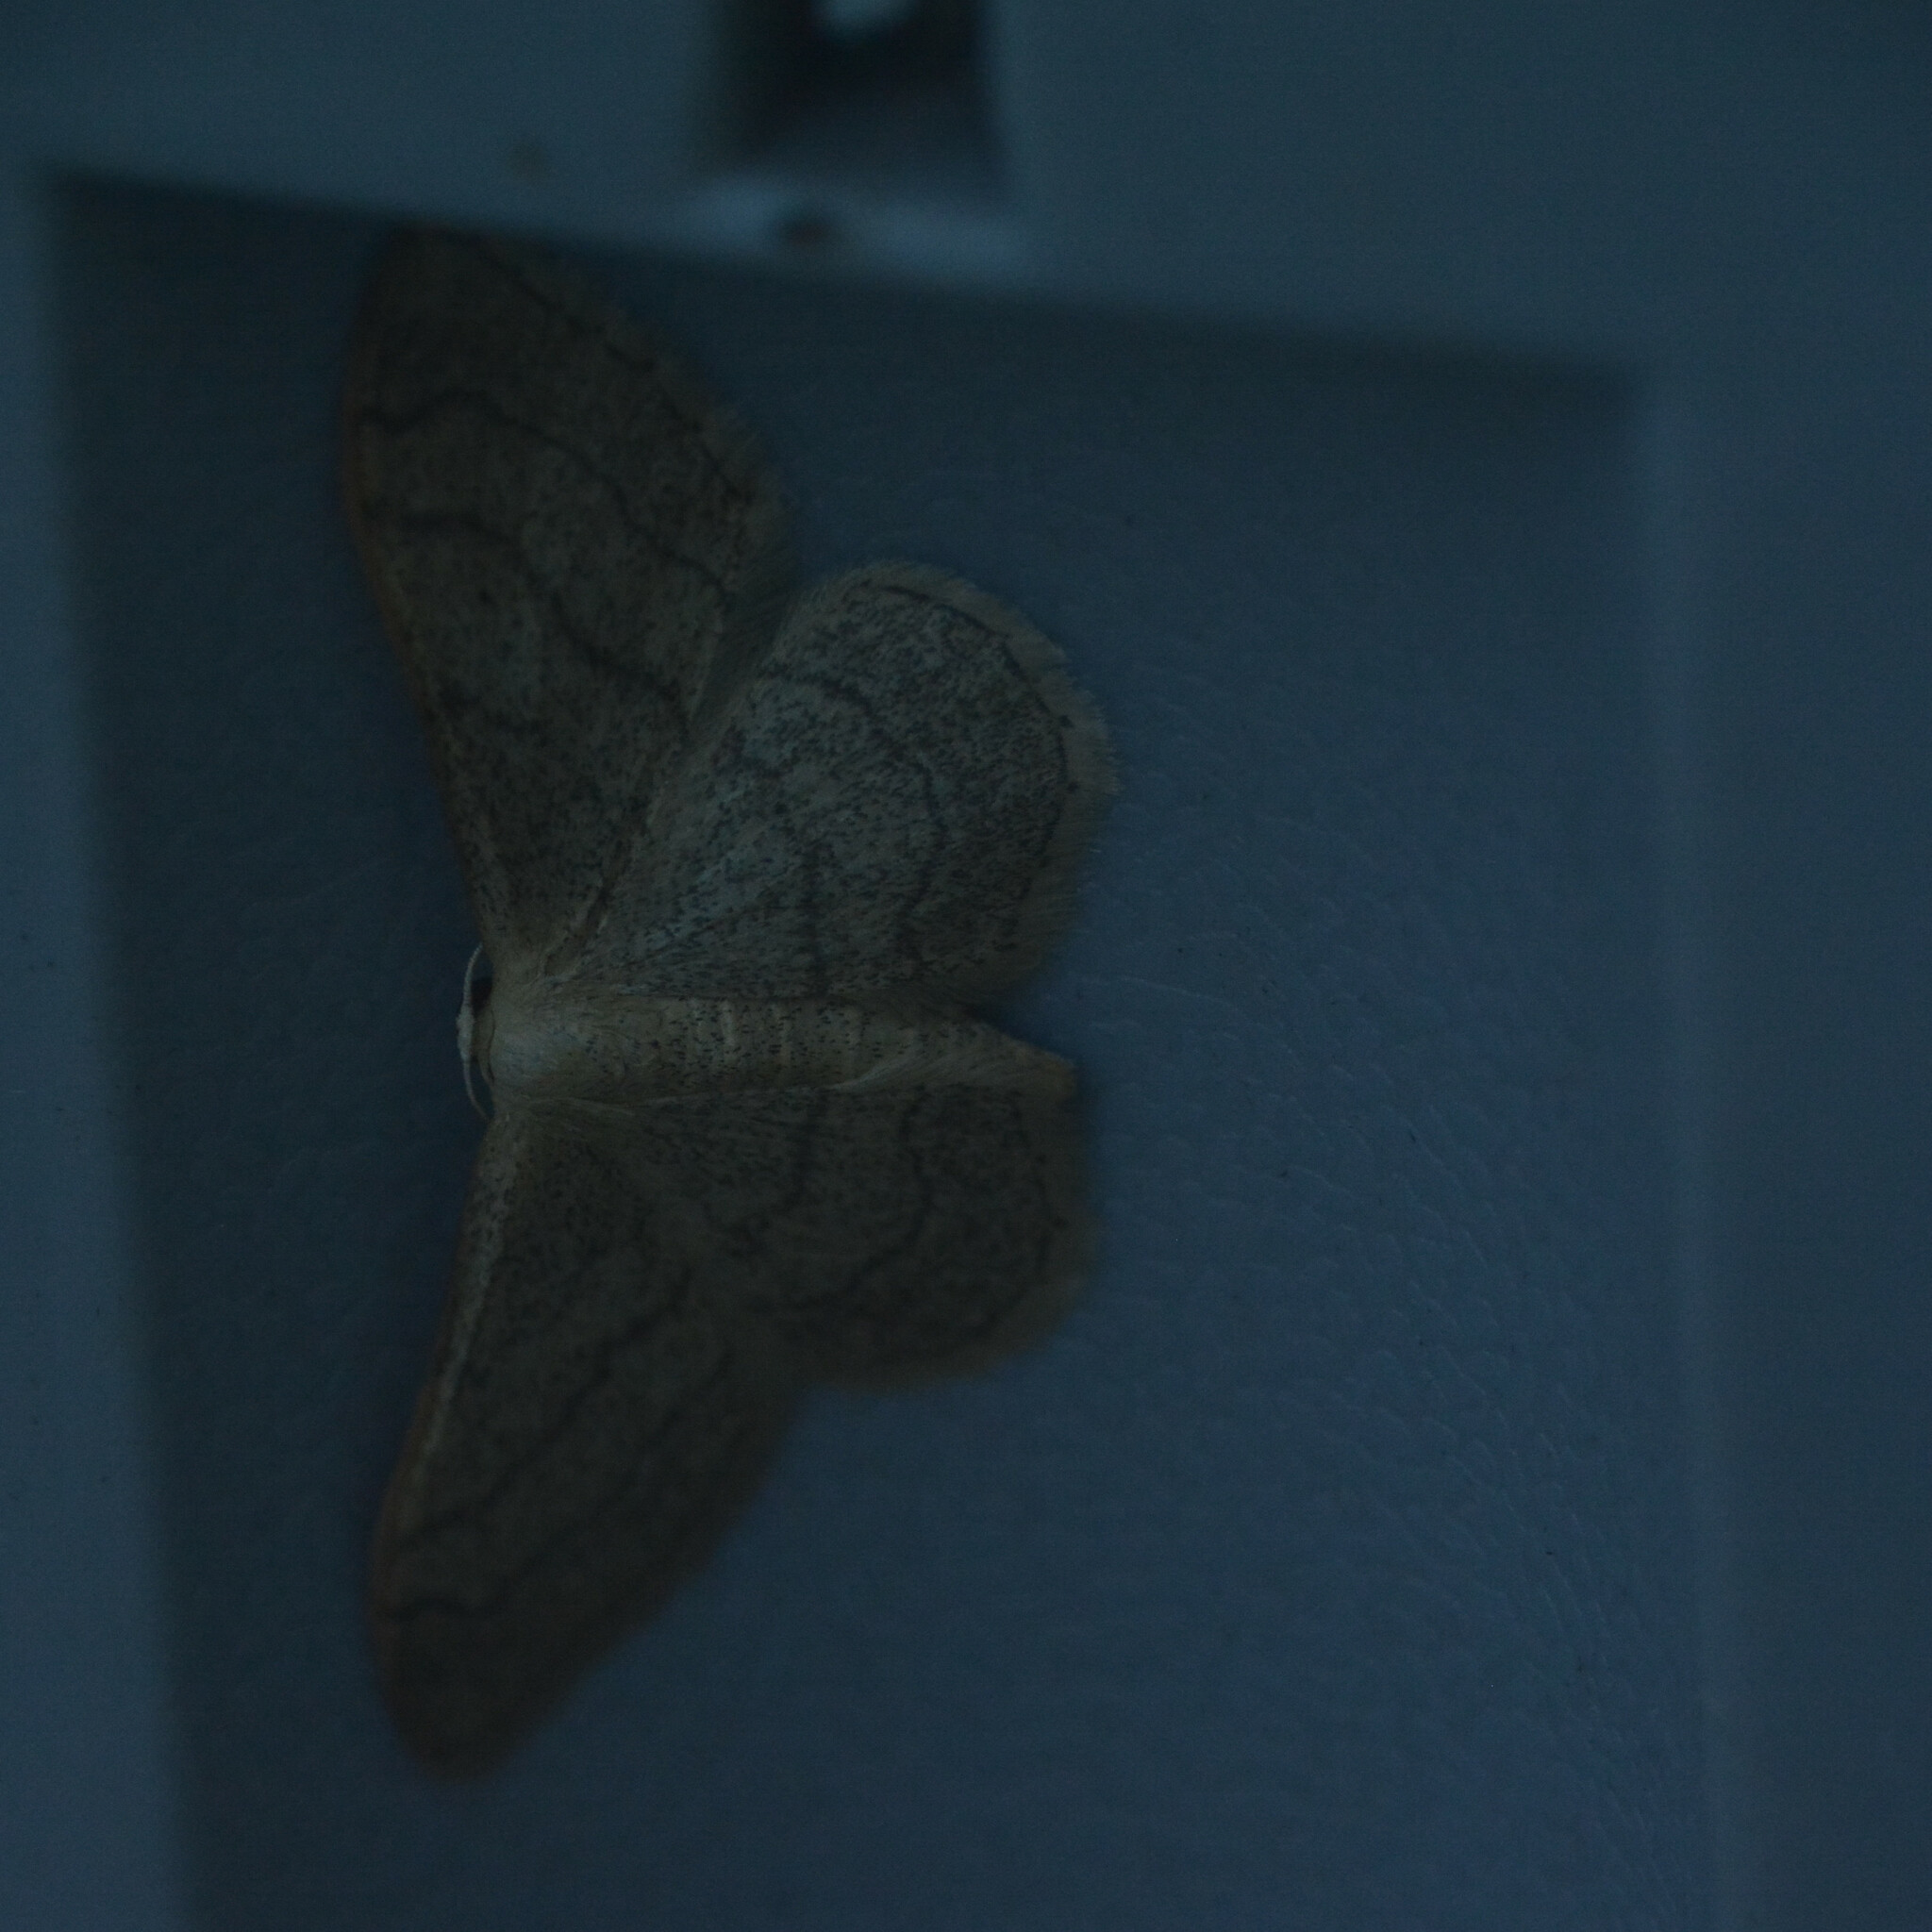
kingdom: Animalia
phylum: Arthropoda
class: Insecta
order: Lepidoptera
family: Geometridae
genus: Idaea
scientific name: Idaea aversata
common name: Riband wave
